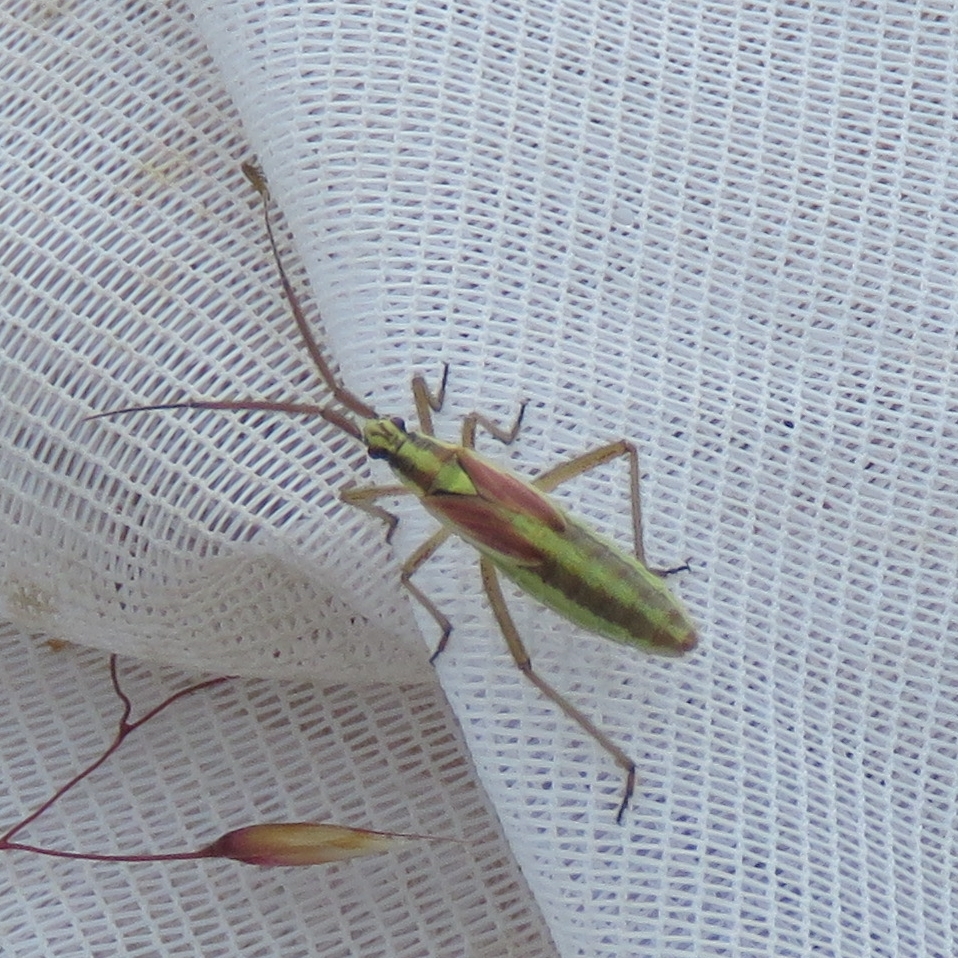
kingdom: Animalia
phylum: Arthropoda
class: Insecta
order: Hemiptera
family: Miridae
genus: Leptopterna
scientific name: Leptopterna ferrugata
